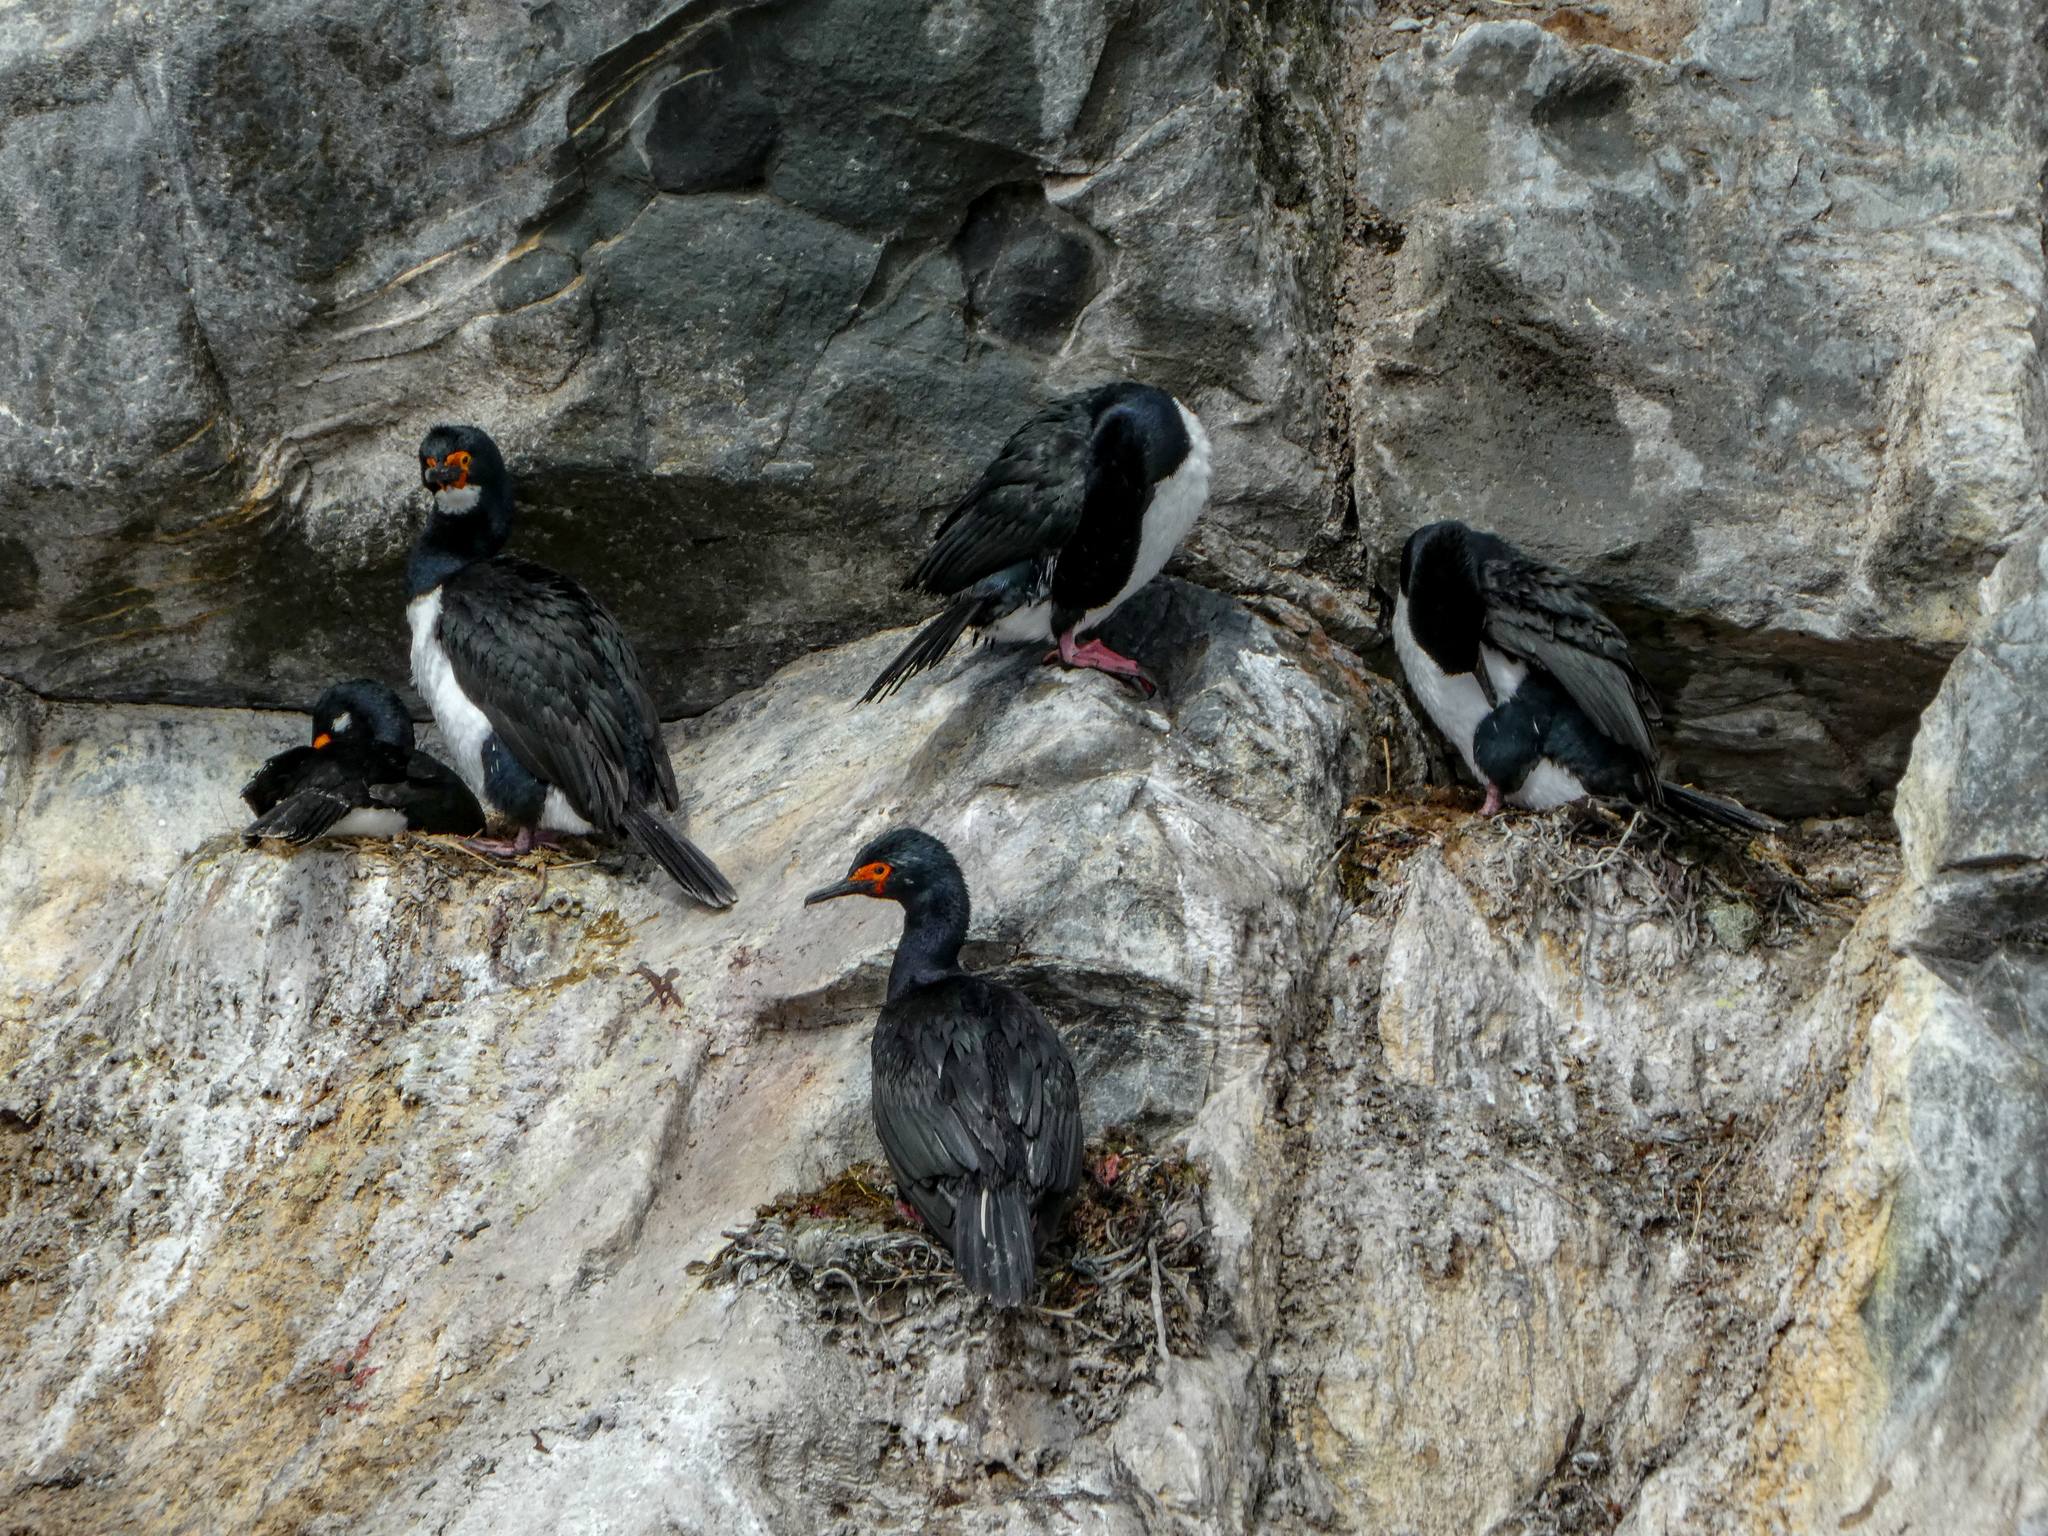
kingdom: Animalia
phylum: Chordata
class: Aves
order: Suliformes
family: Phalacrocoracidae
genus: Phalacrocorax
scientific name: Phalacrocorax magellanicus
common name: Rock shag
